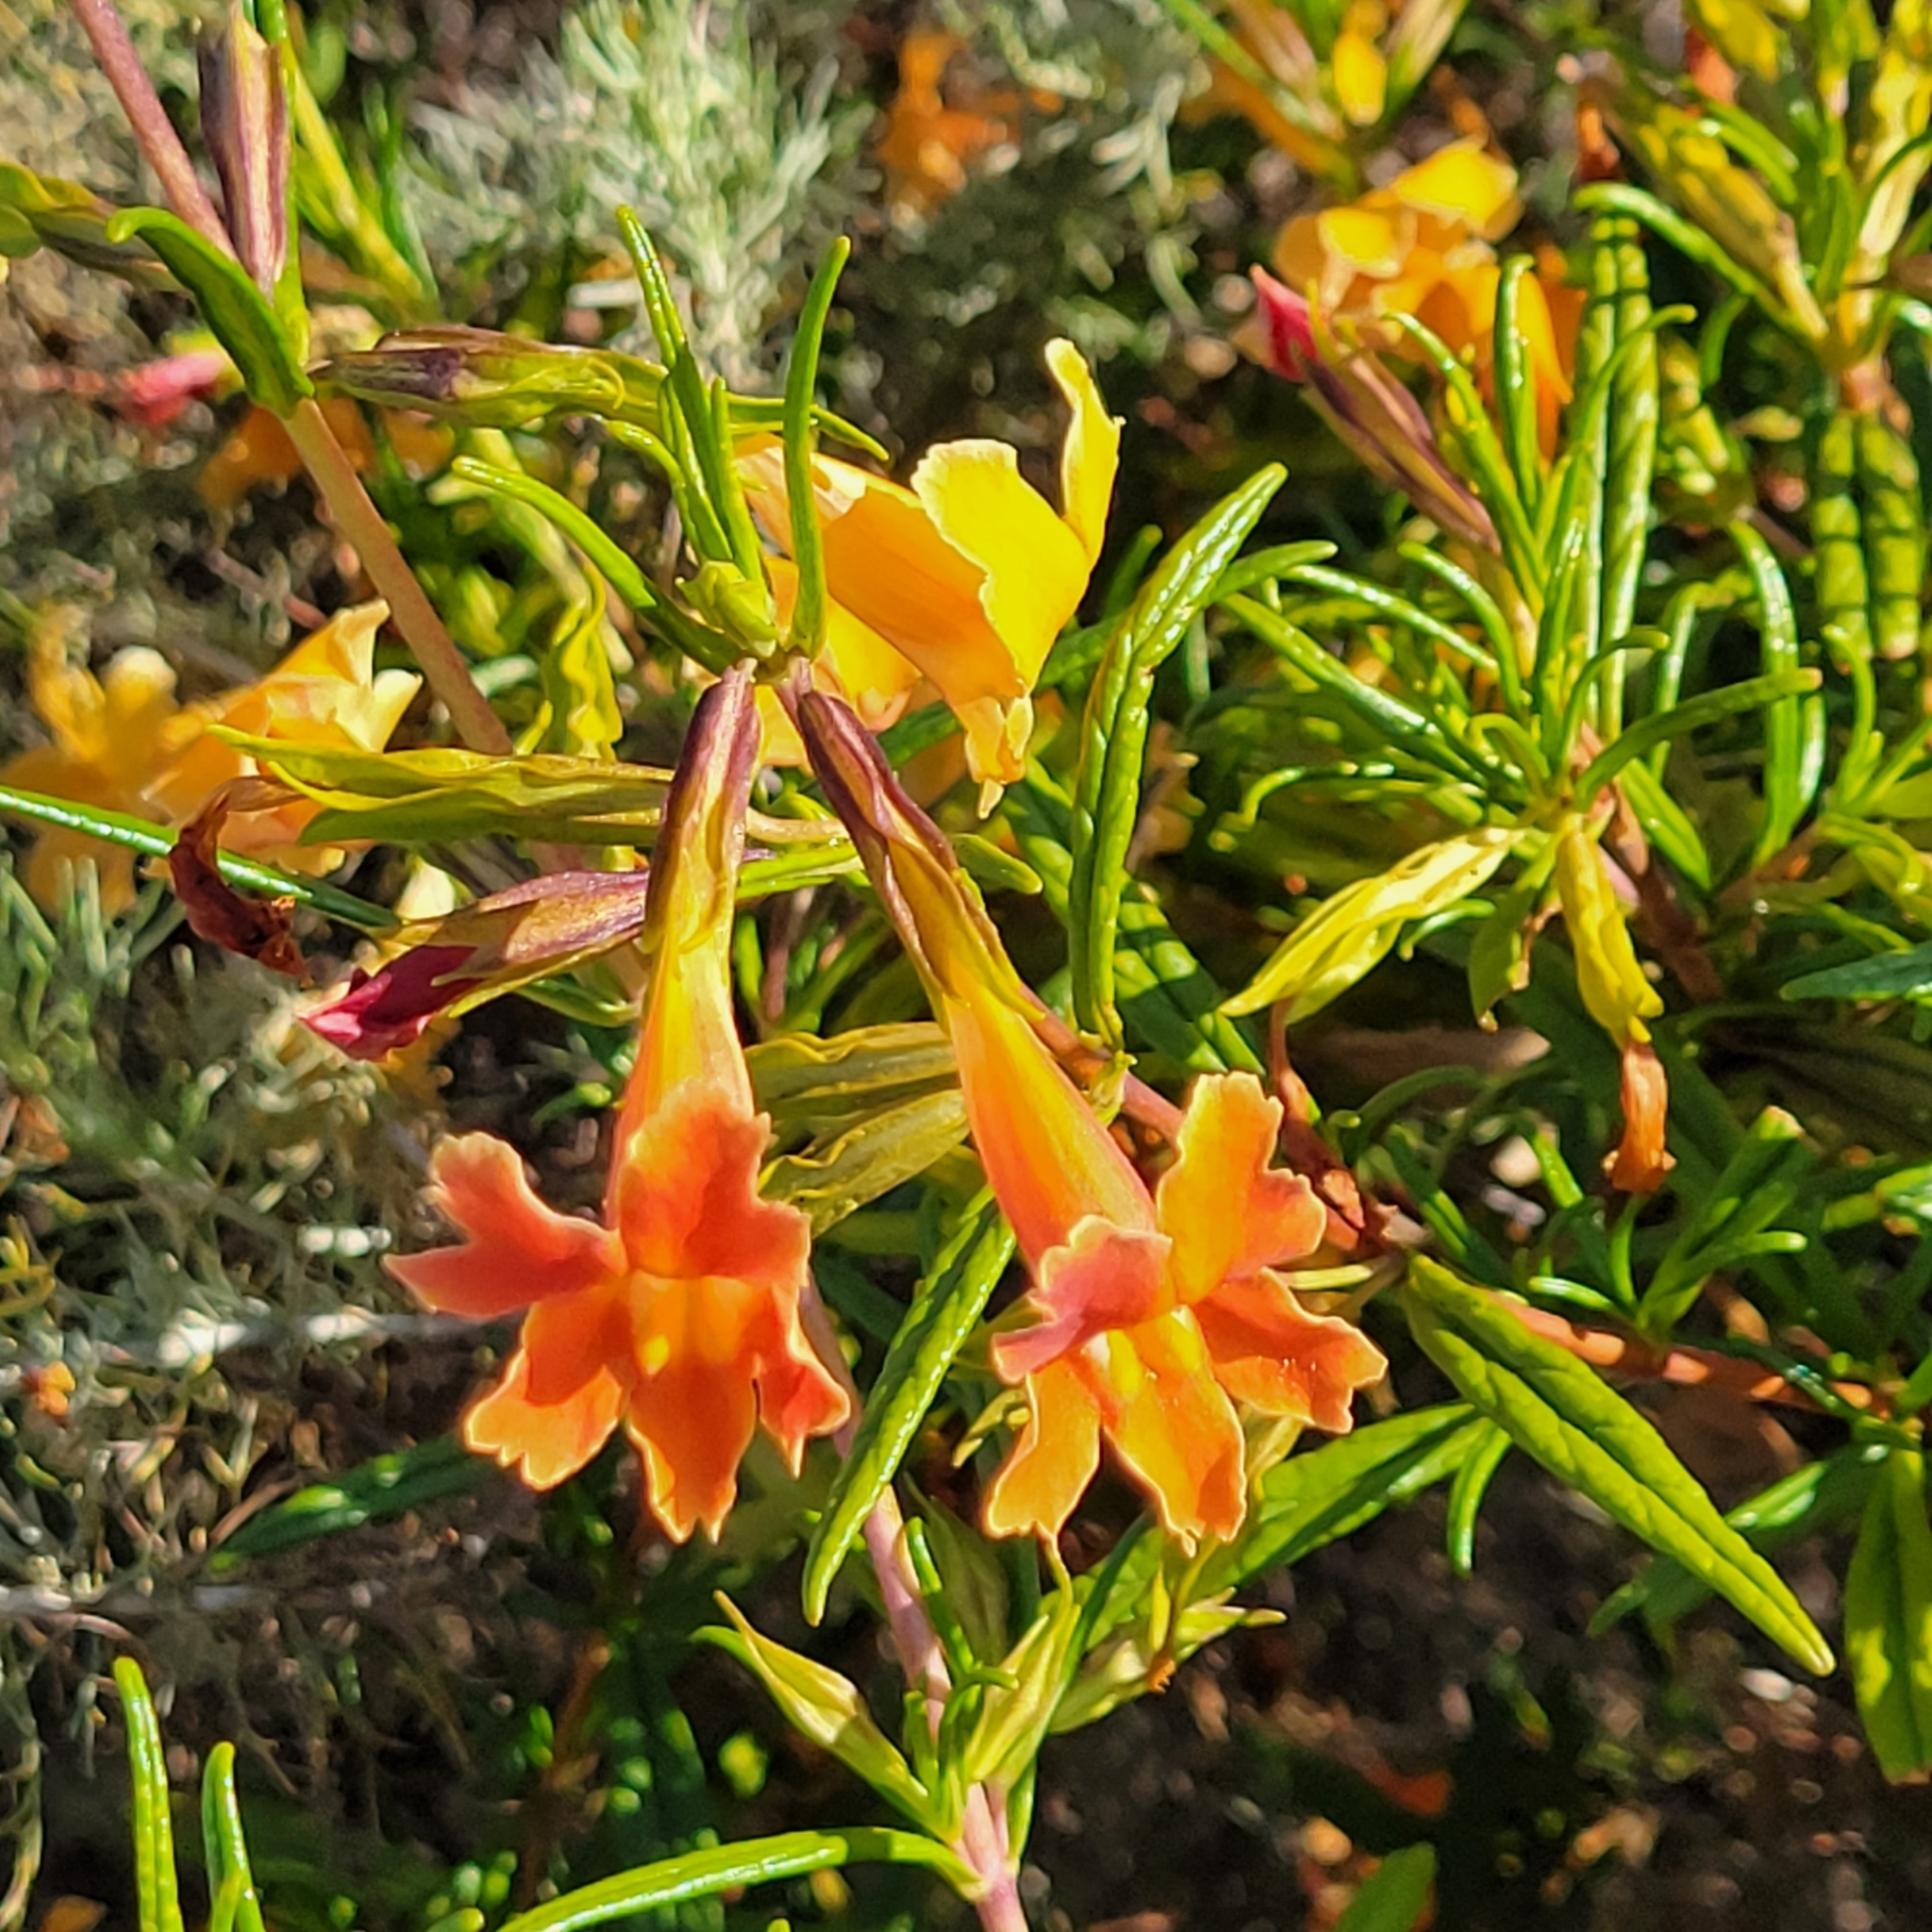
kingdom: Plantae
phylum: Tracheophyta
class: Magnoliopsida
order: Lamiales
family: Phrymaceae
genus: Diplacus
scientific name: Diplacus australis
